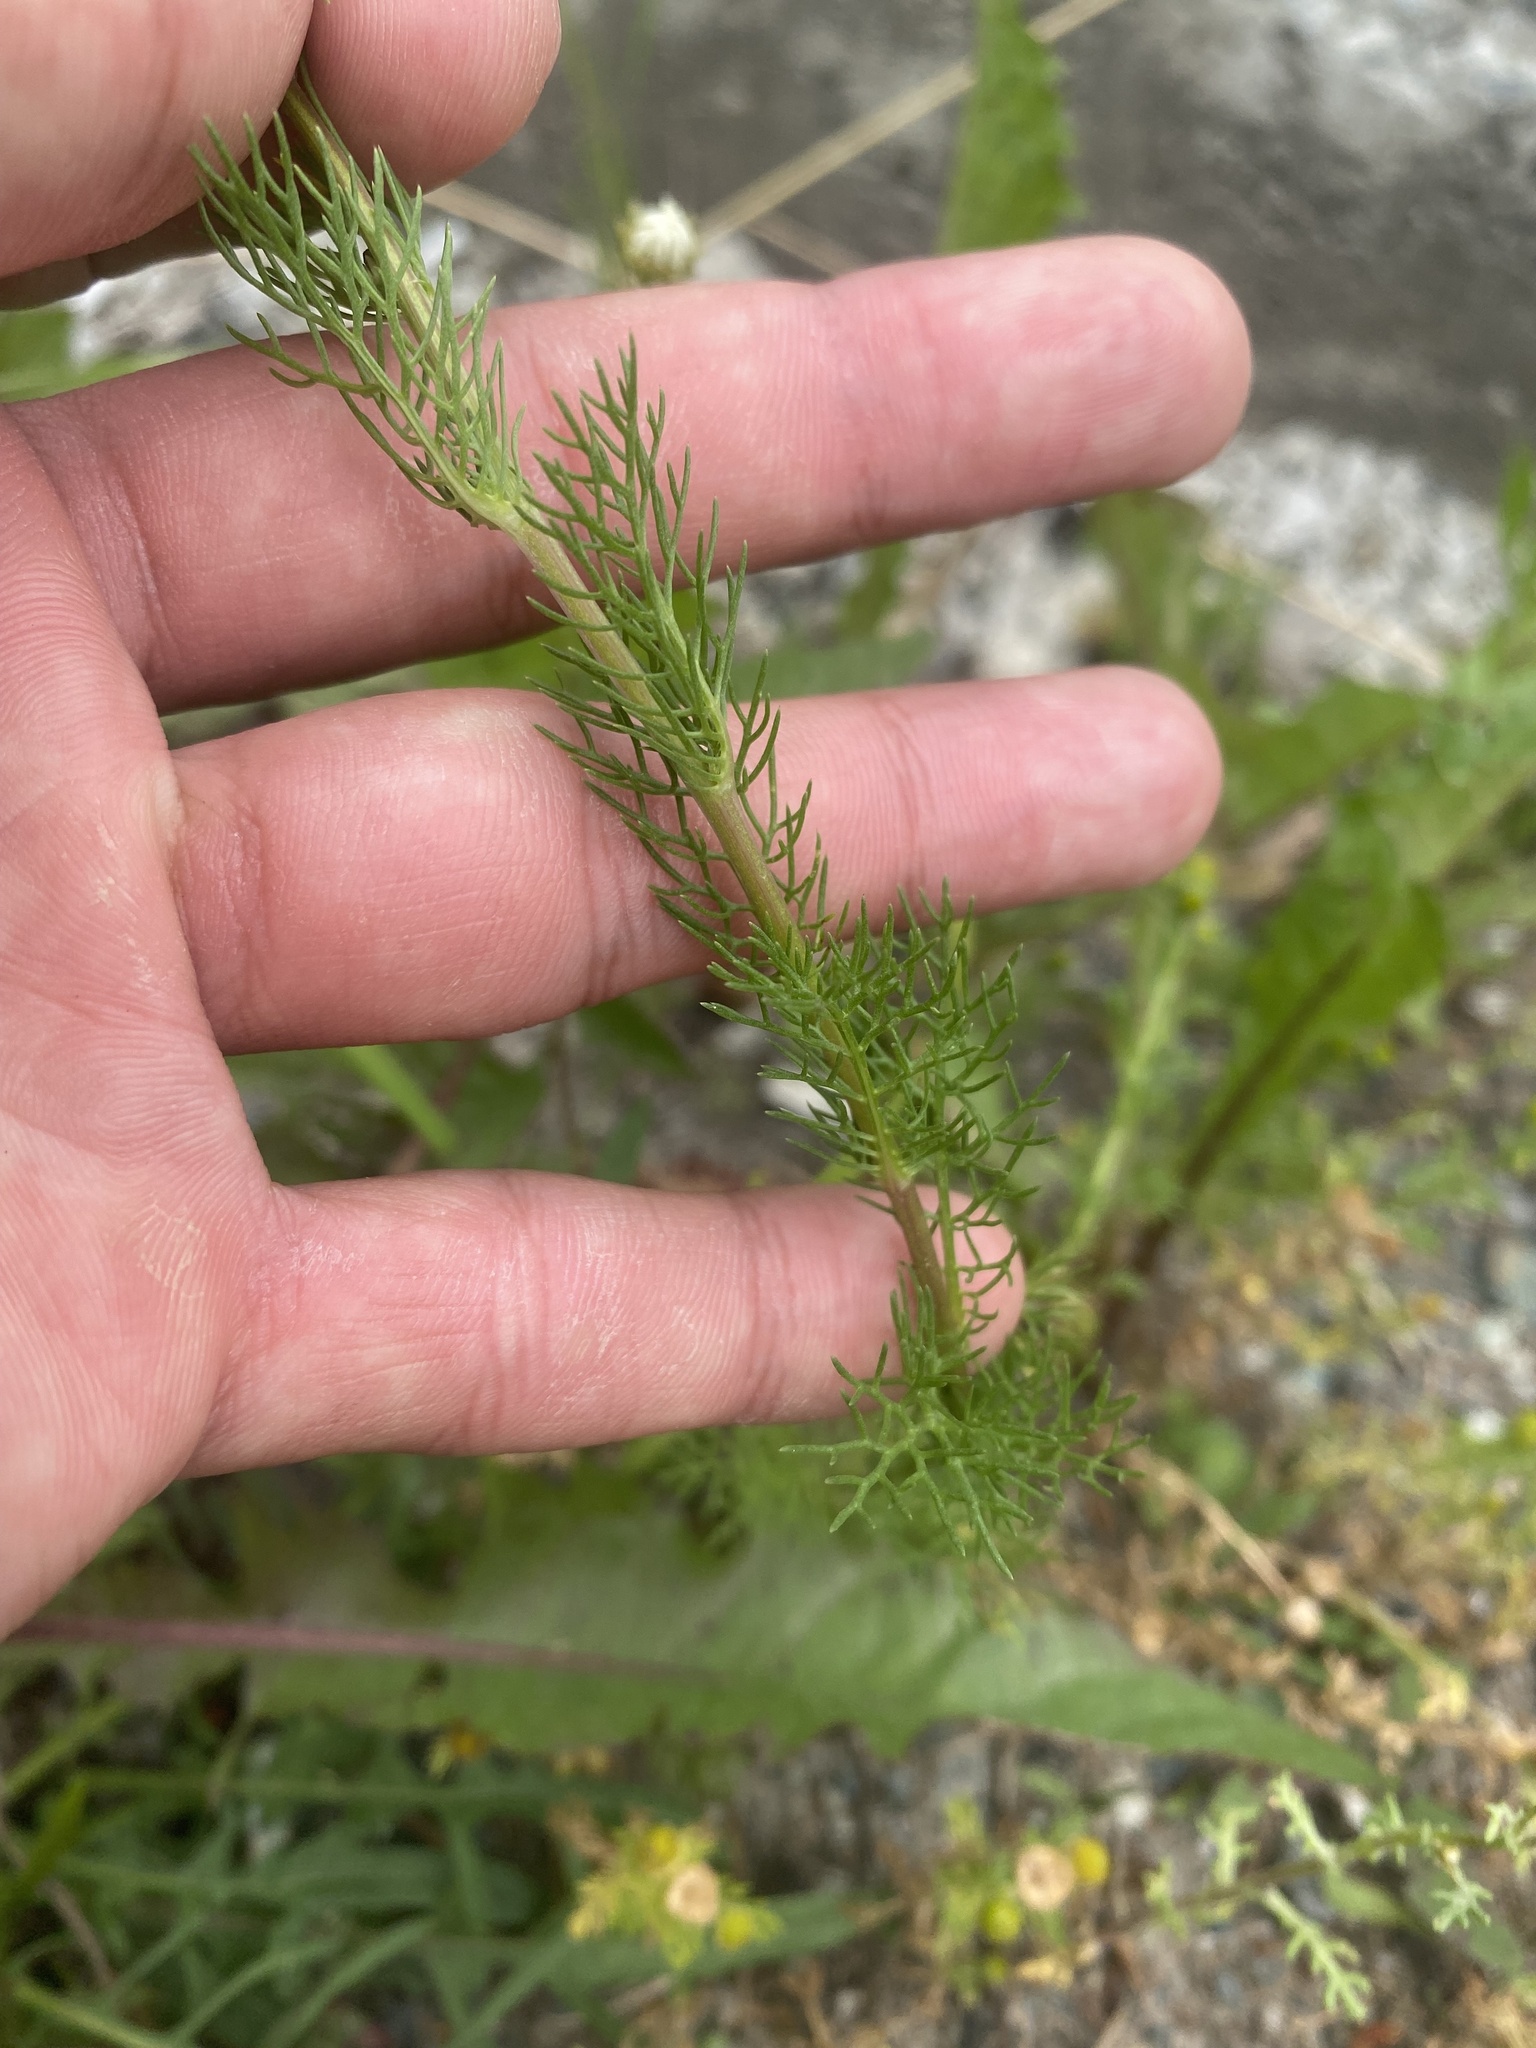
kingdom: Plantae
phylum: Tracheophyta
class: Magnoliopsida
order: Asterales
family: Asteraceae
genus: Tripleurospermum
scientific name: Tripleurospermum inodorum
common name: Scentless mayweed
